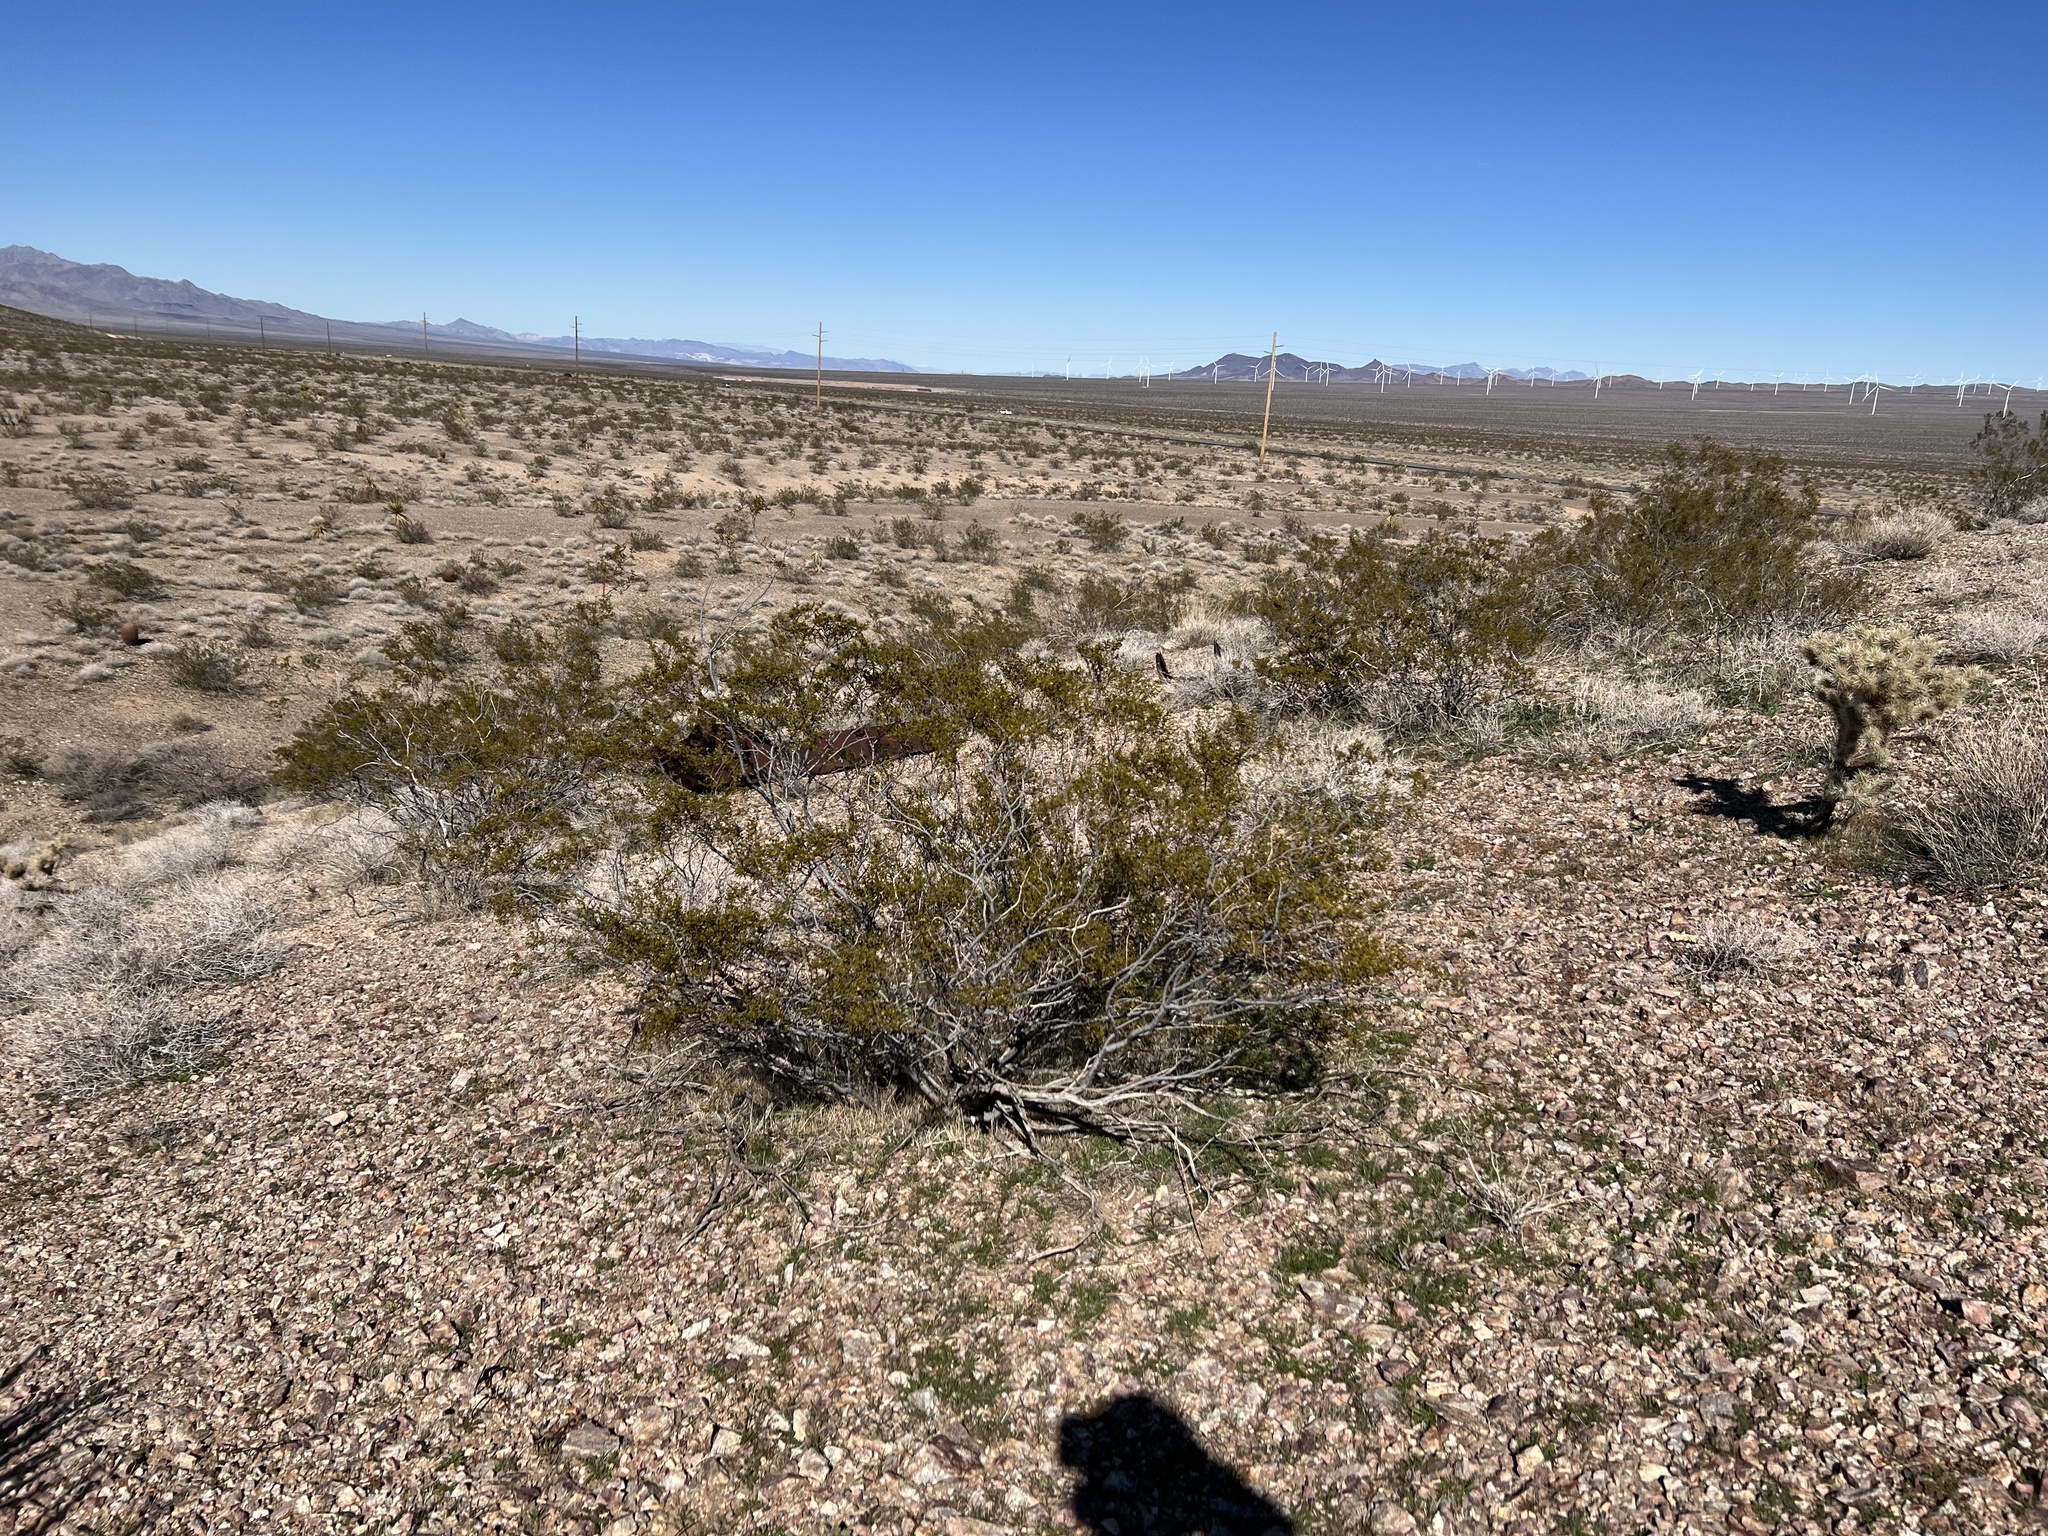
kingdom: Plantae
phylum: Tracheophyta
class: Magnoliopsida
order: Zygophyllales
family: Zygophyllaceae
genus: Larrea
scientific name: Larrea tridentata
